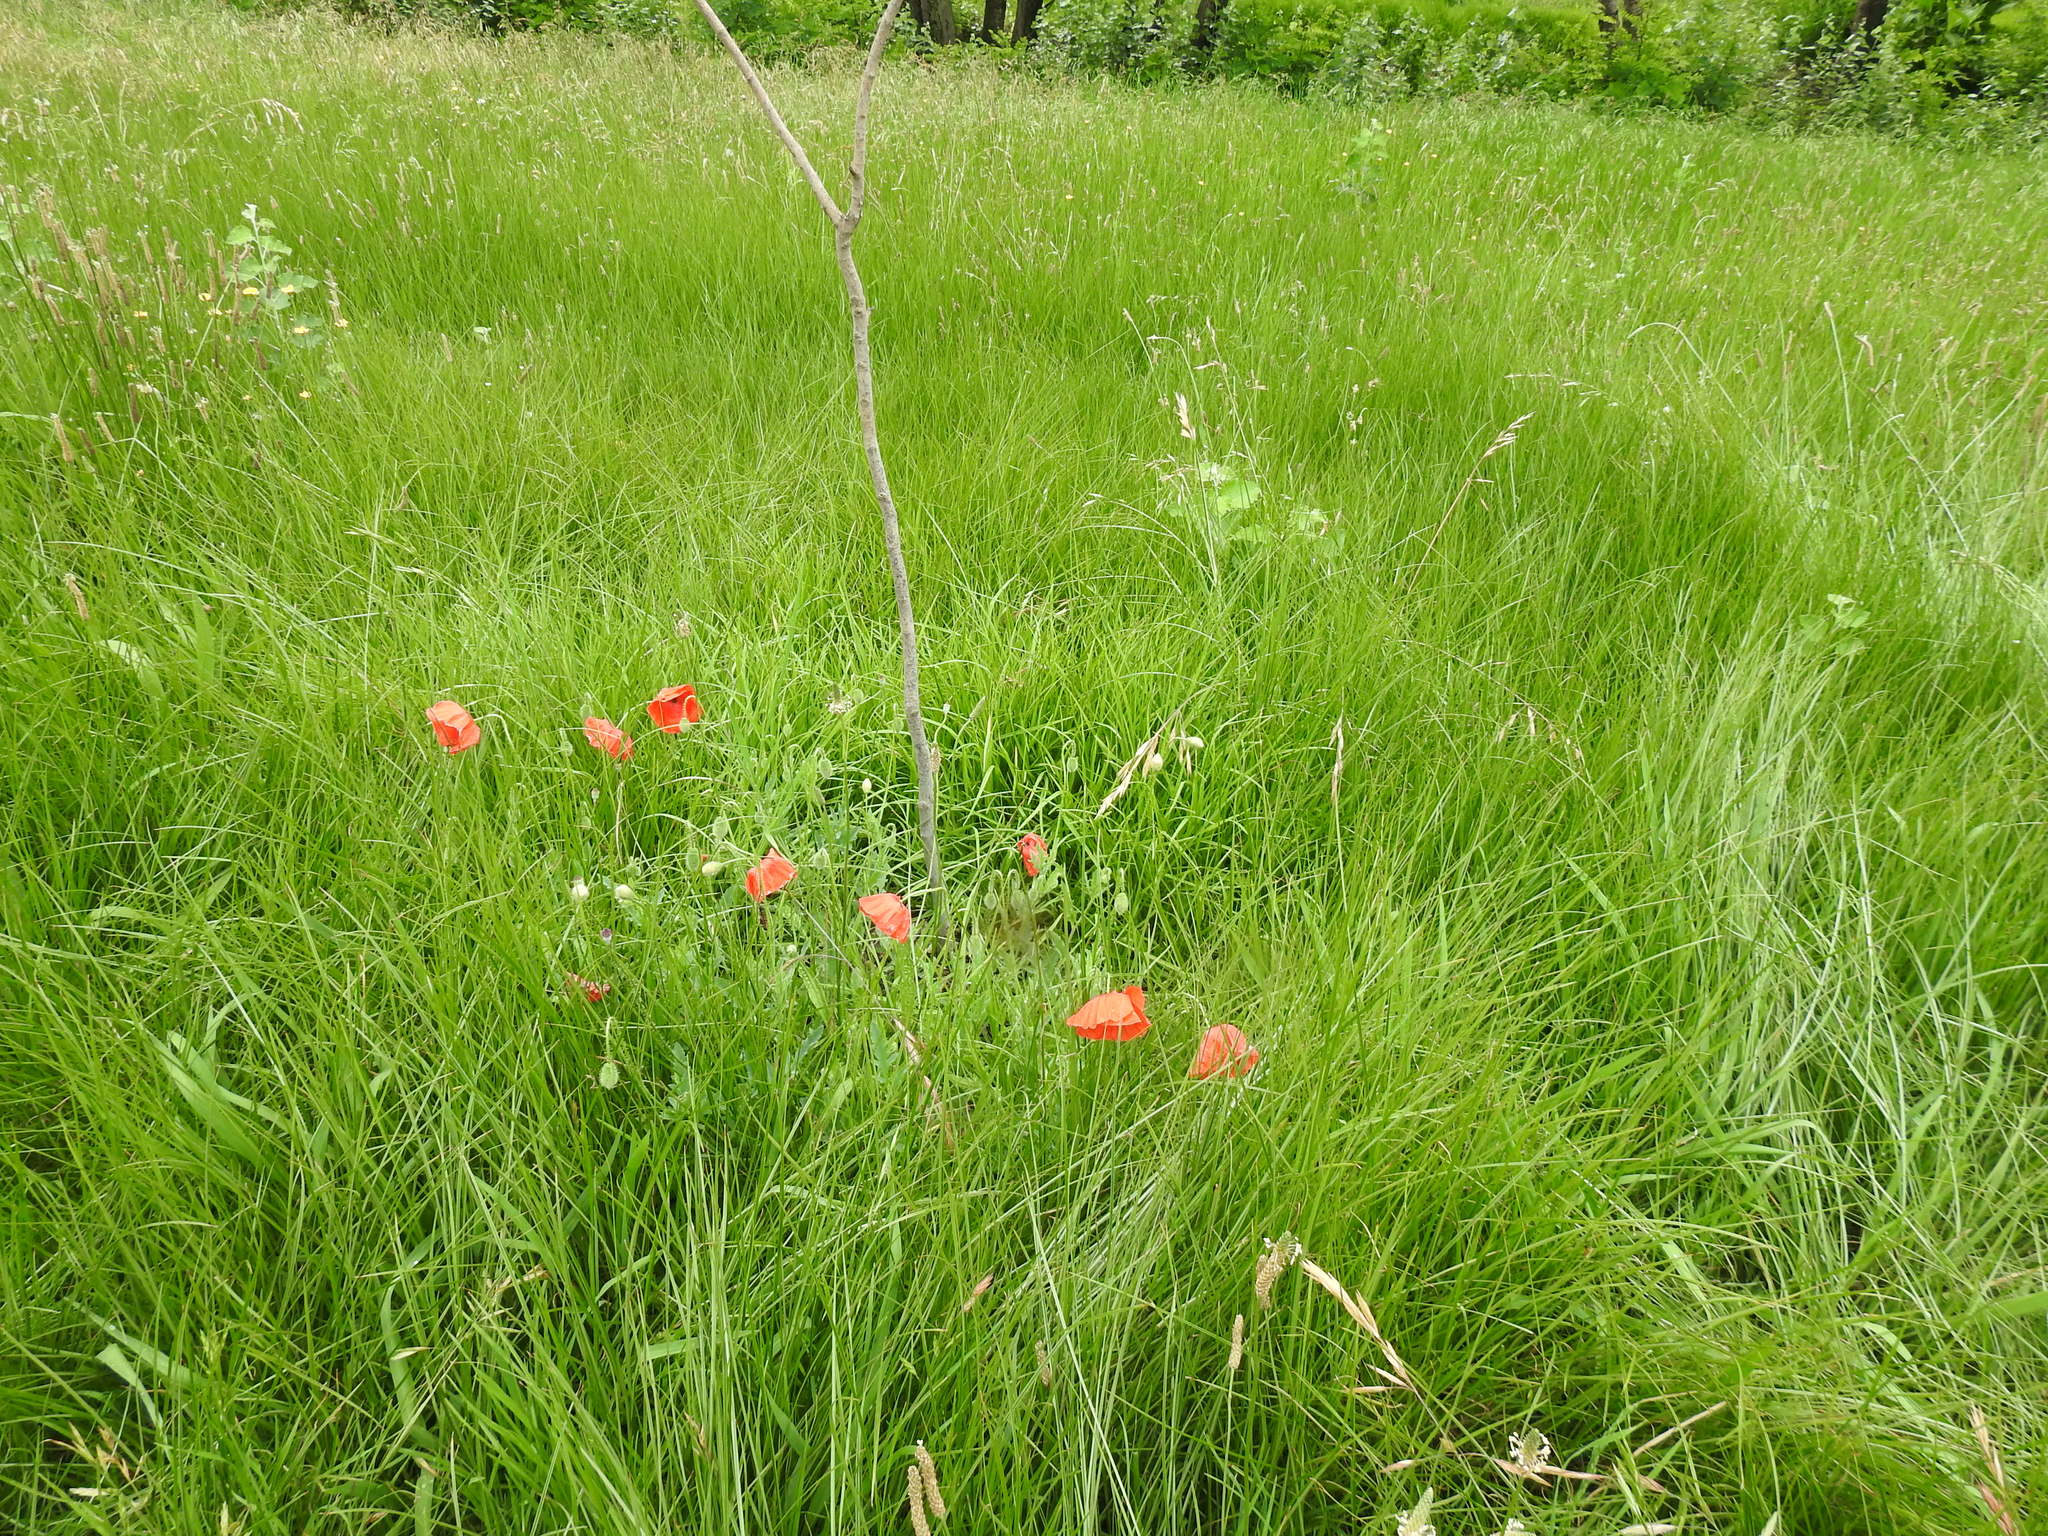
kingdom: Plantae
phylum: Tracheophyta
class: Magnoliopsida
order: Ranunculales
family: Papaveraceae
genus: Papaver
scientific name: Papaver rhoeas
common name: Corn poppy
